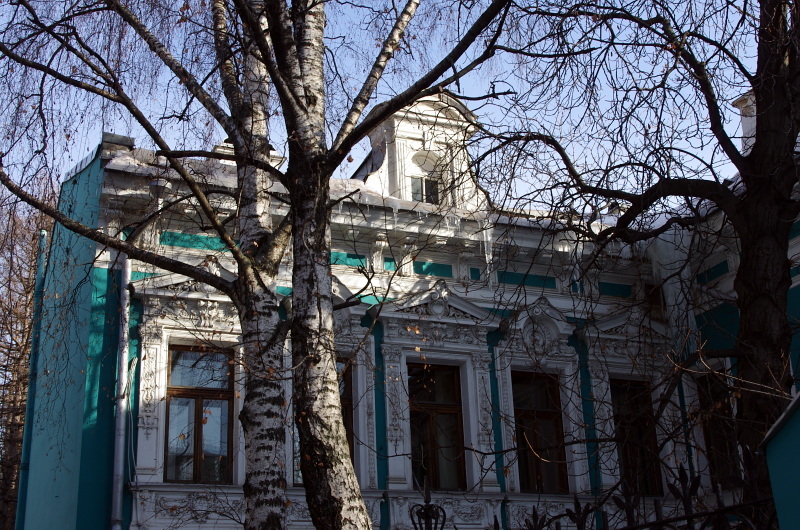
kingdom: Plantae
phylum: Tracheophyta
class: Magnoliopsida
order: Fagales
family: Betulaceae
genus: Betula
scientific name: Betula pendula
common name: Silver birch
